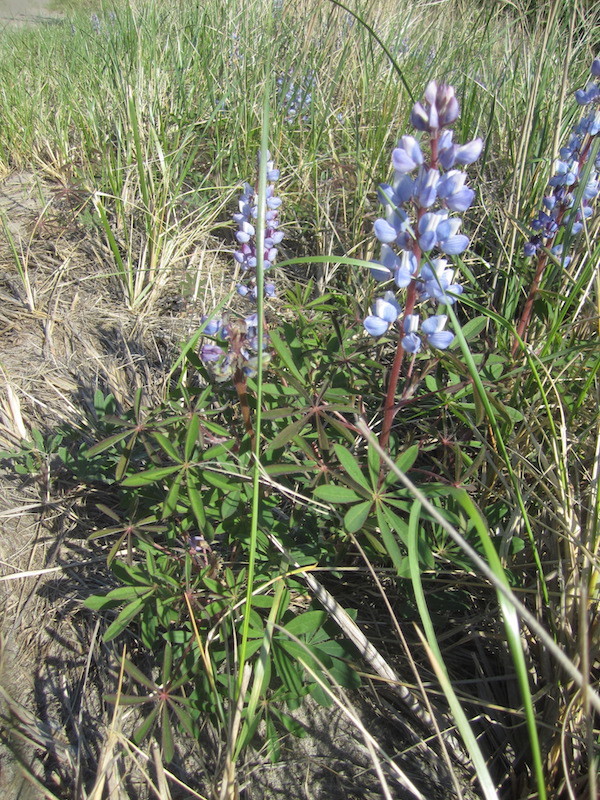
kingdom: Plantae
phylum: Tracheophyta
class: Magnoliopsida
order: Fabales
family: Fabaceae
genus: Lupinus
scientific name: Lupinus perennis
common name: Sundial lupine
